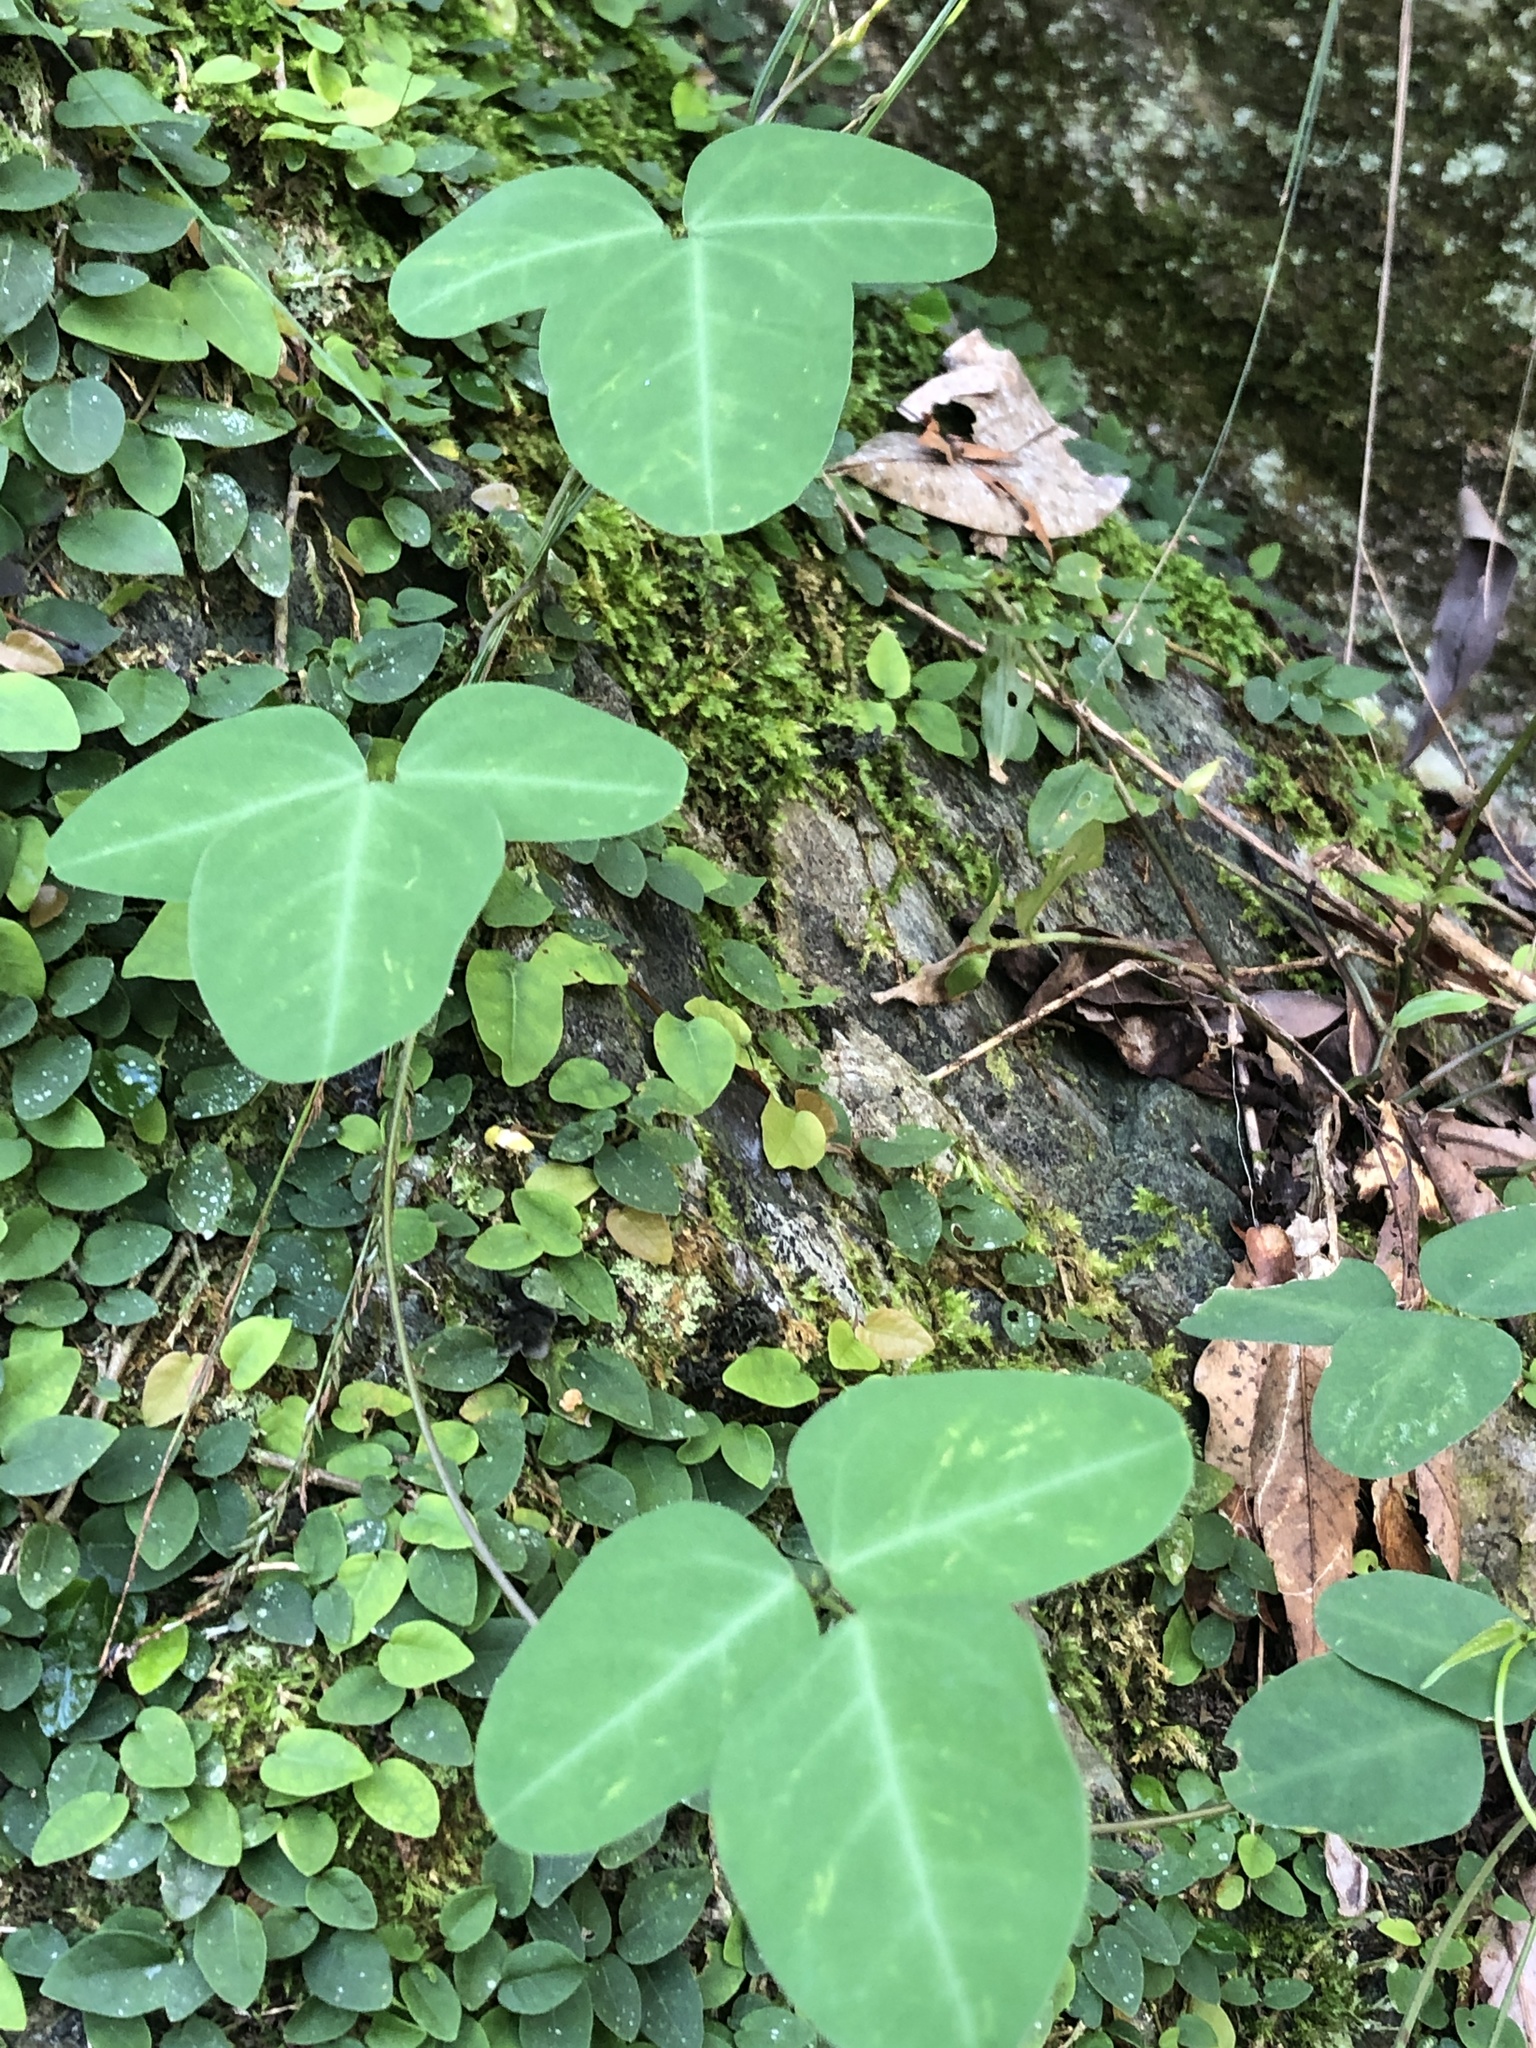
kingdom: Plantae
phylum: Tracheophyta
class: Magnoliopsida
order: Fabales
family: Fabaceae
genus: Dumasia
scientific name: Dumasia villosa
